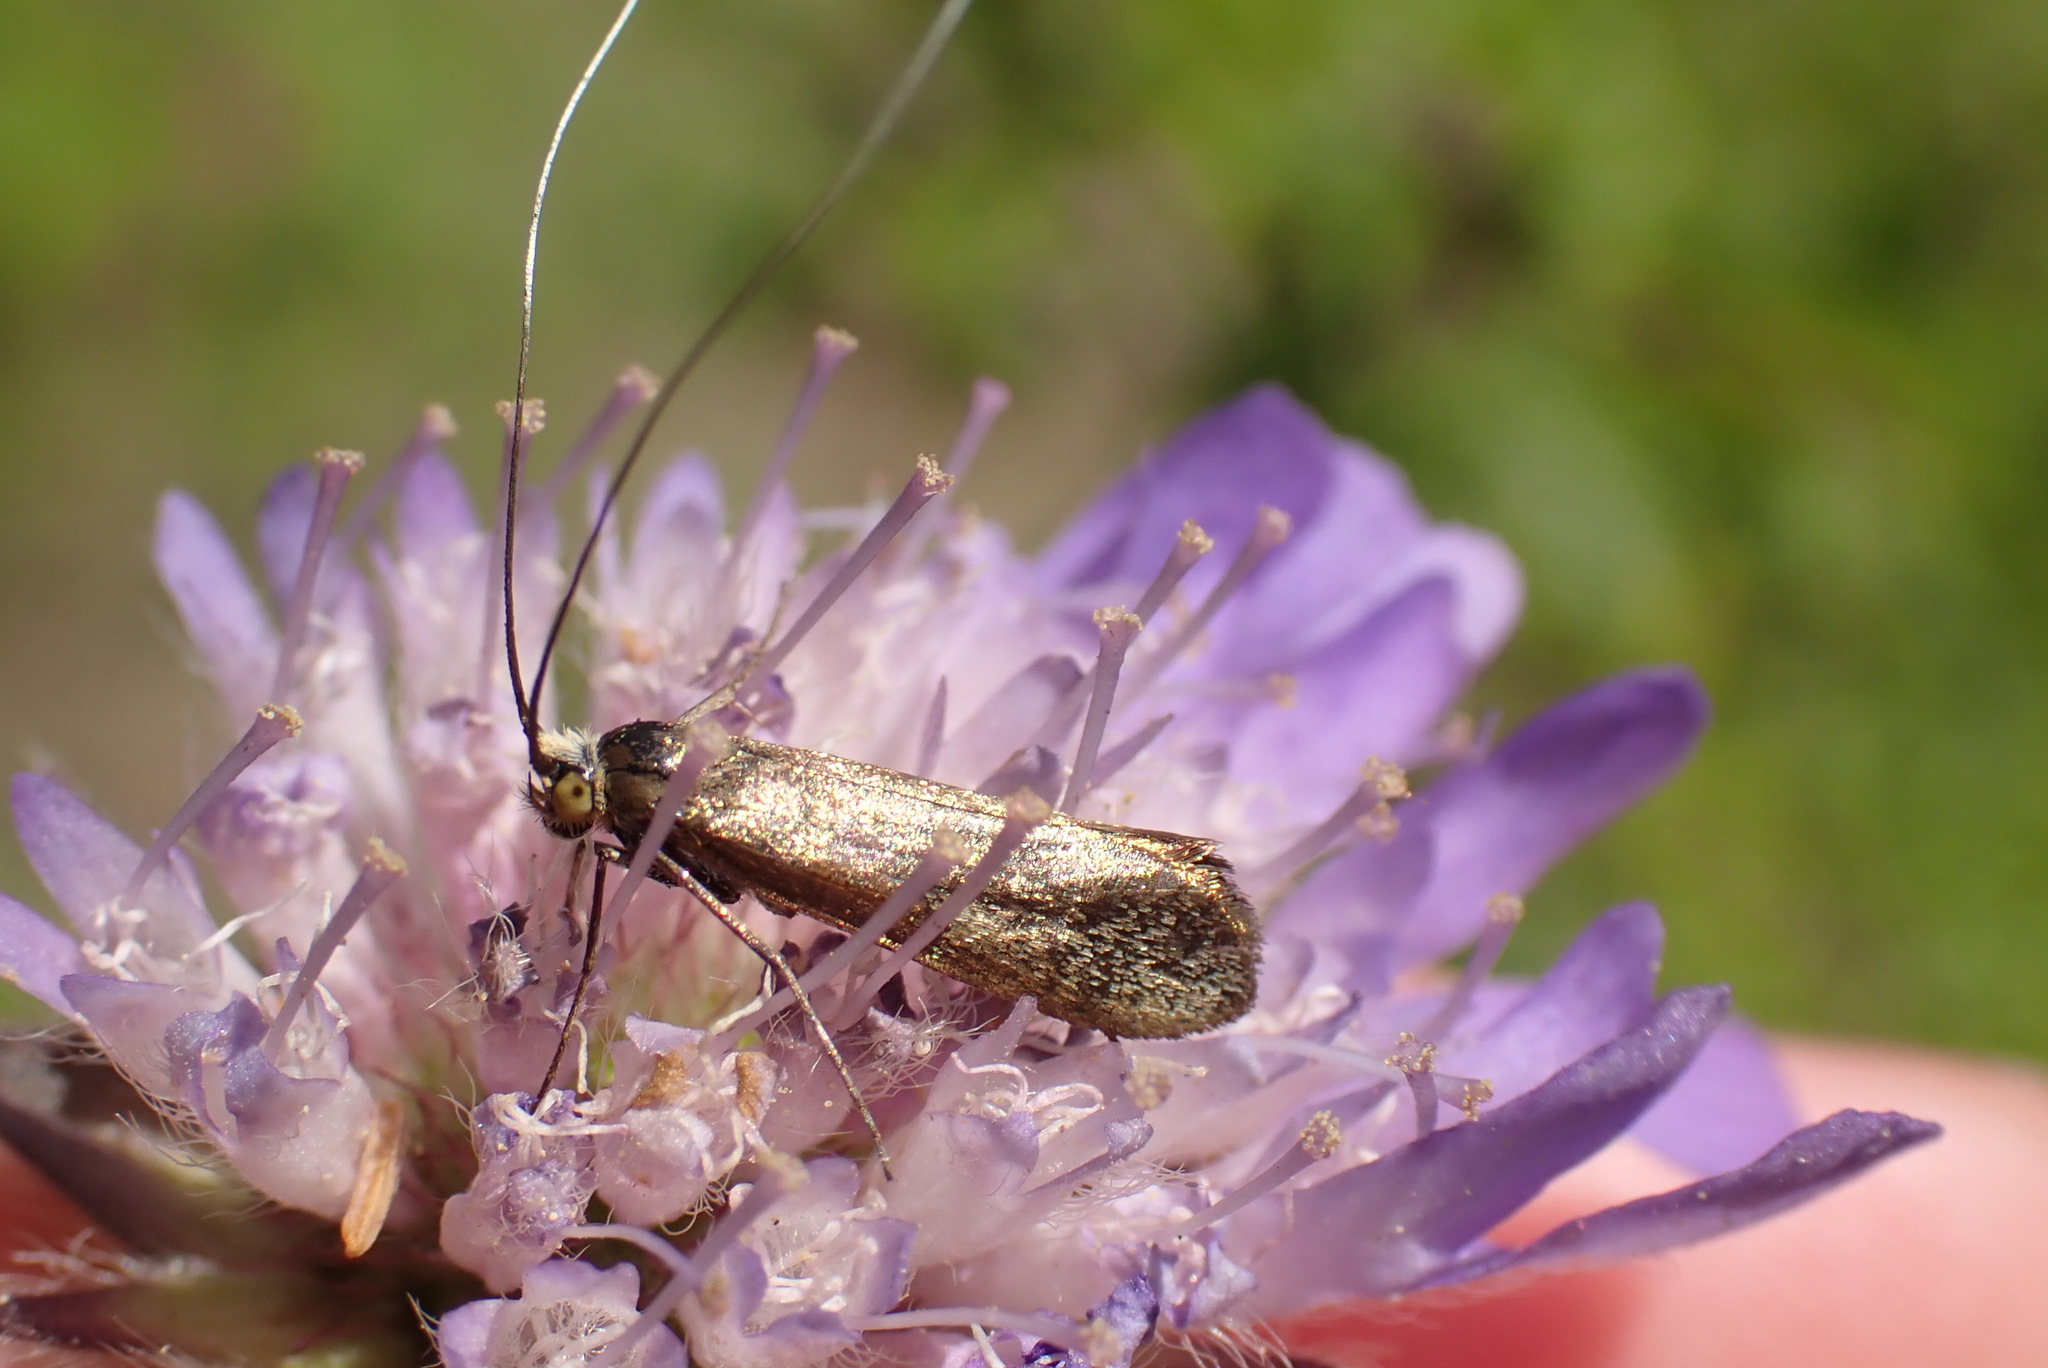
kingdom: Animalia
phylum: Arthropoda
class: Insecta
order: Lepidoptera
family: Adelidae
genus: Nemophora
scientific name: Nemophora metallica
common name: Brassy long-horn
